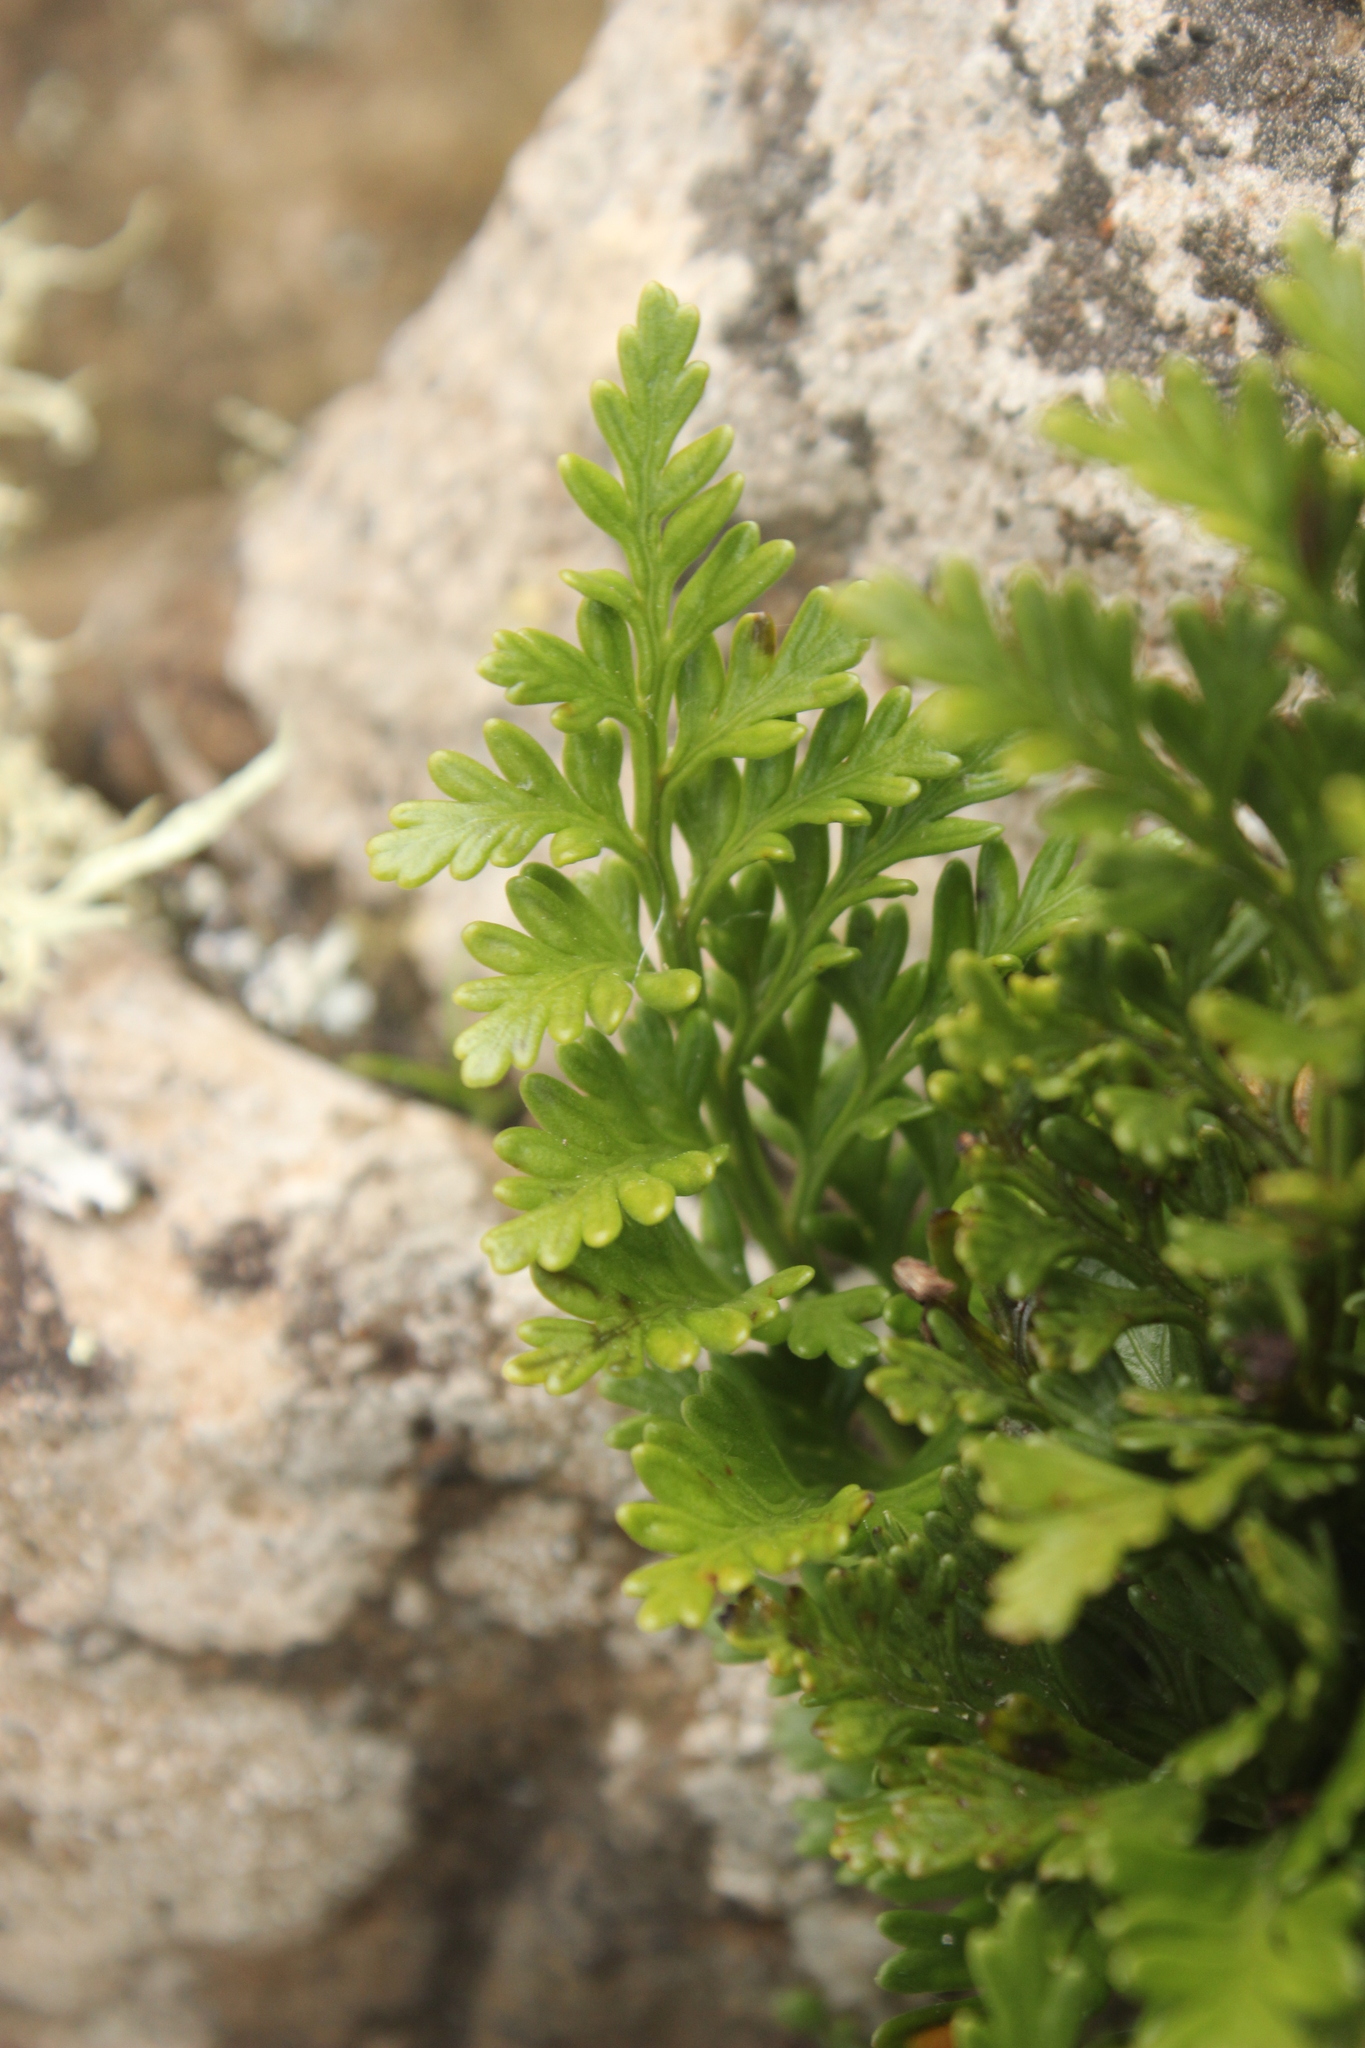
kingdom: Plantae
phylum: Tracheophyta
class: Polypodiopsida
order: Polypodiales
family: Aspleniaceae
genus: Asplenium
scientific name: Asplenium chathamense
